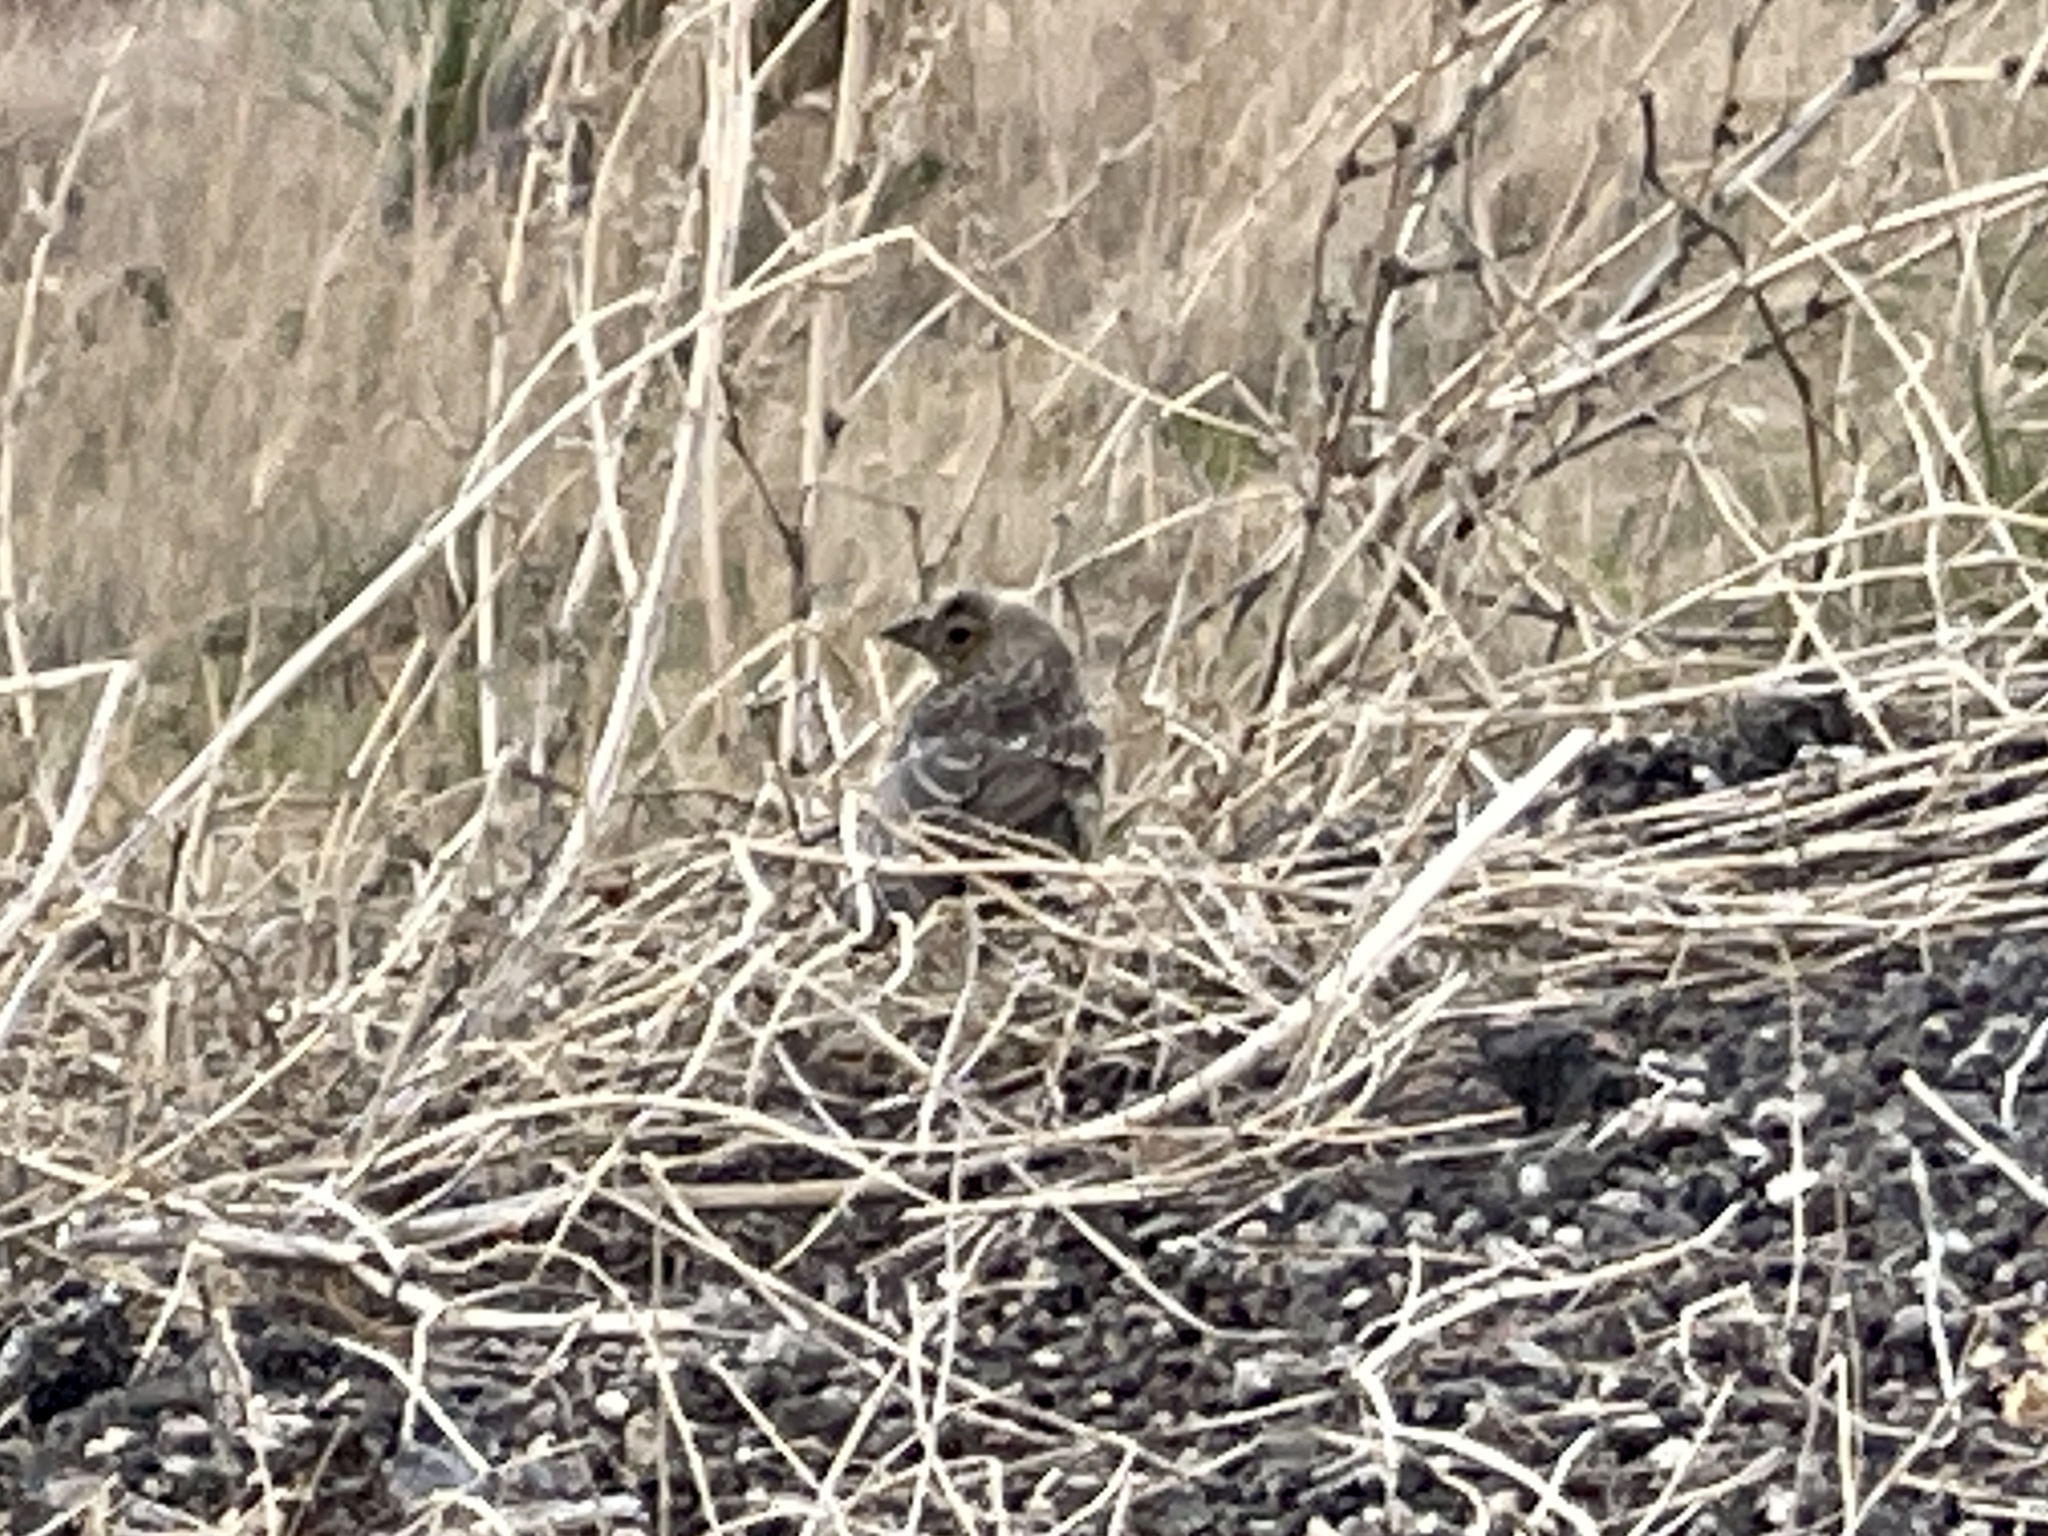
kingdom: Animalia
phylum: Chordata
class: Aves
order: Passeriformes
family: Fringillidae
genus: Haemorhous
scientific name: Haemorhous mexicanus
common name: House finch
